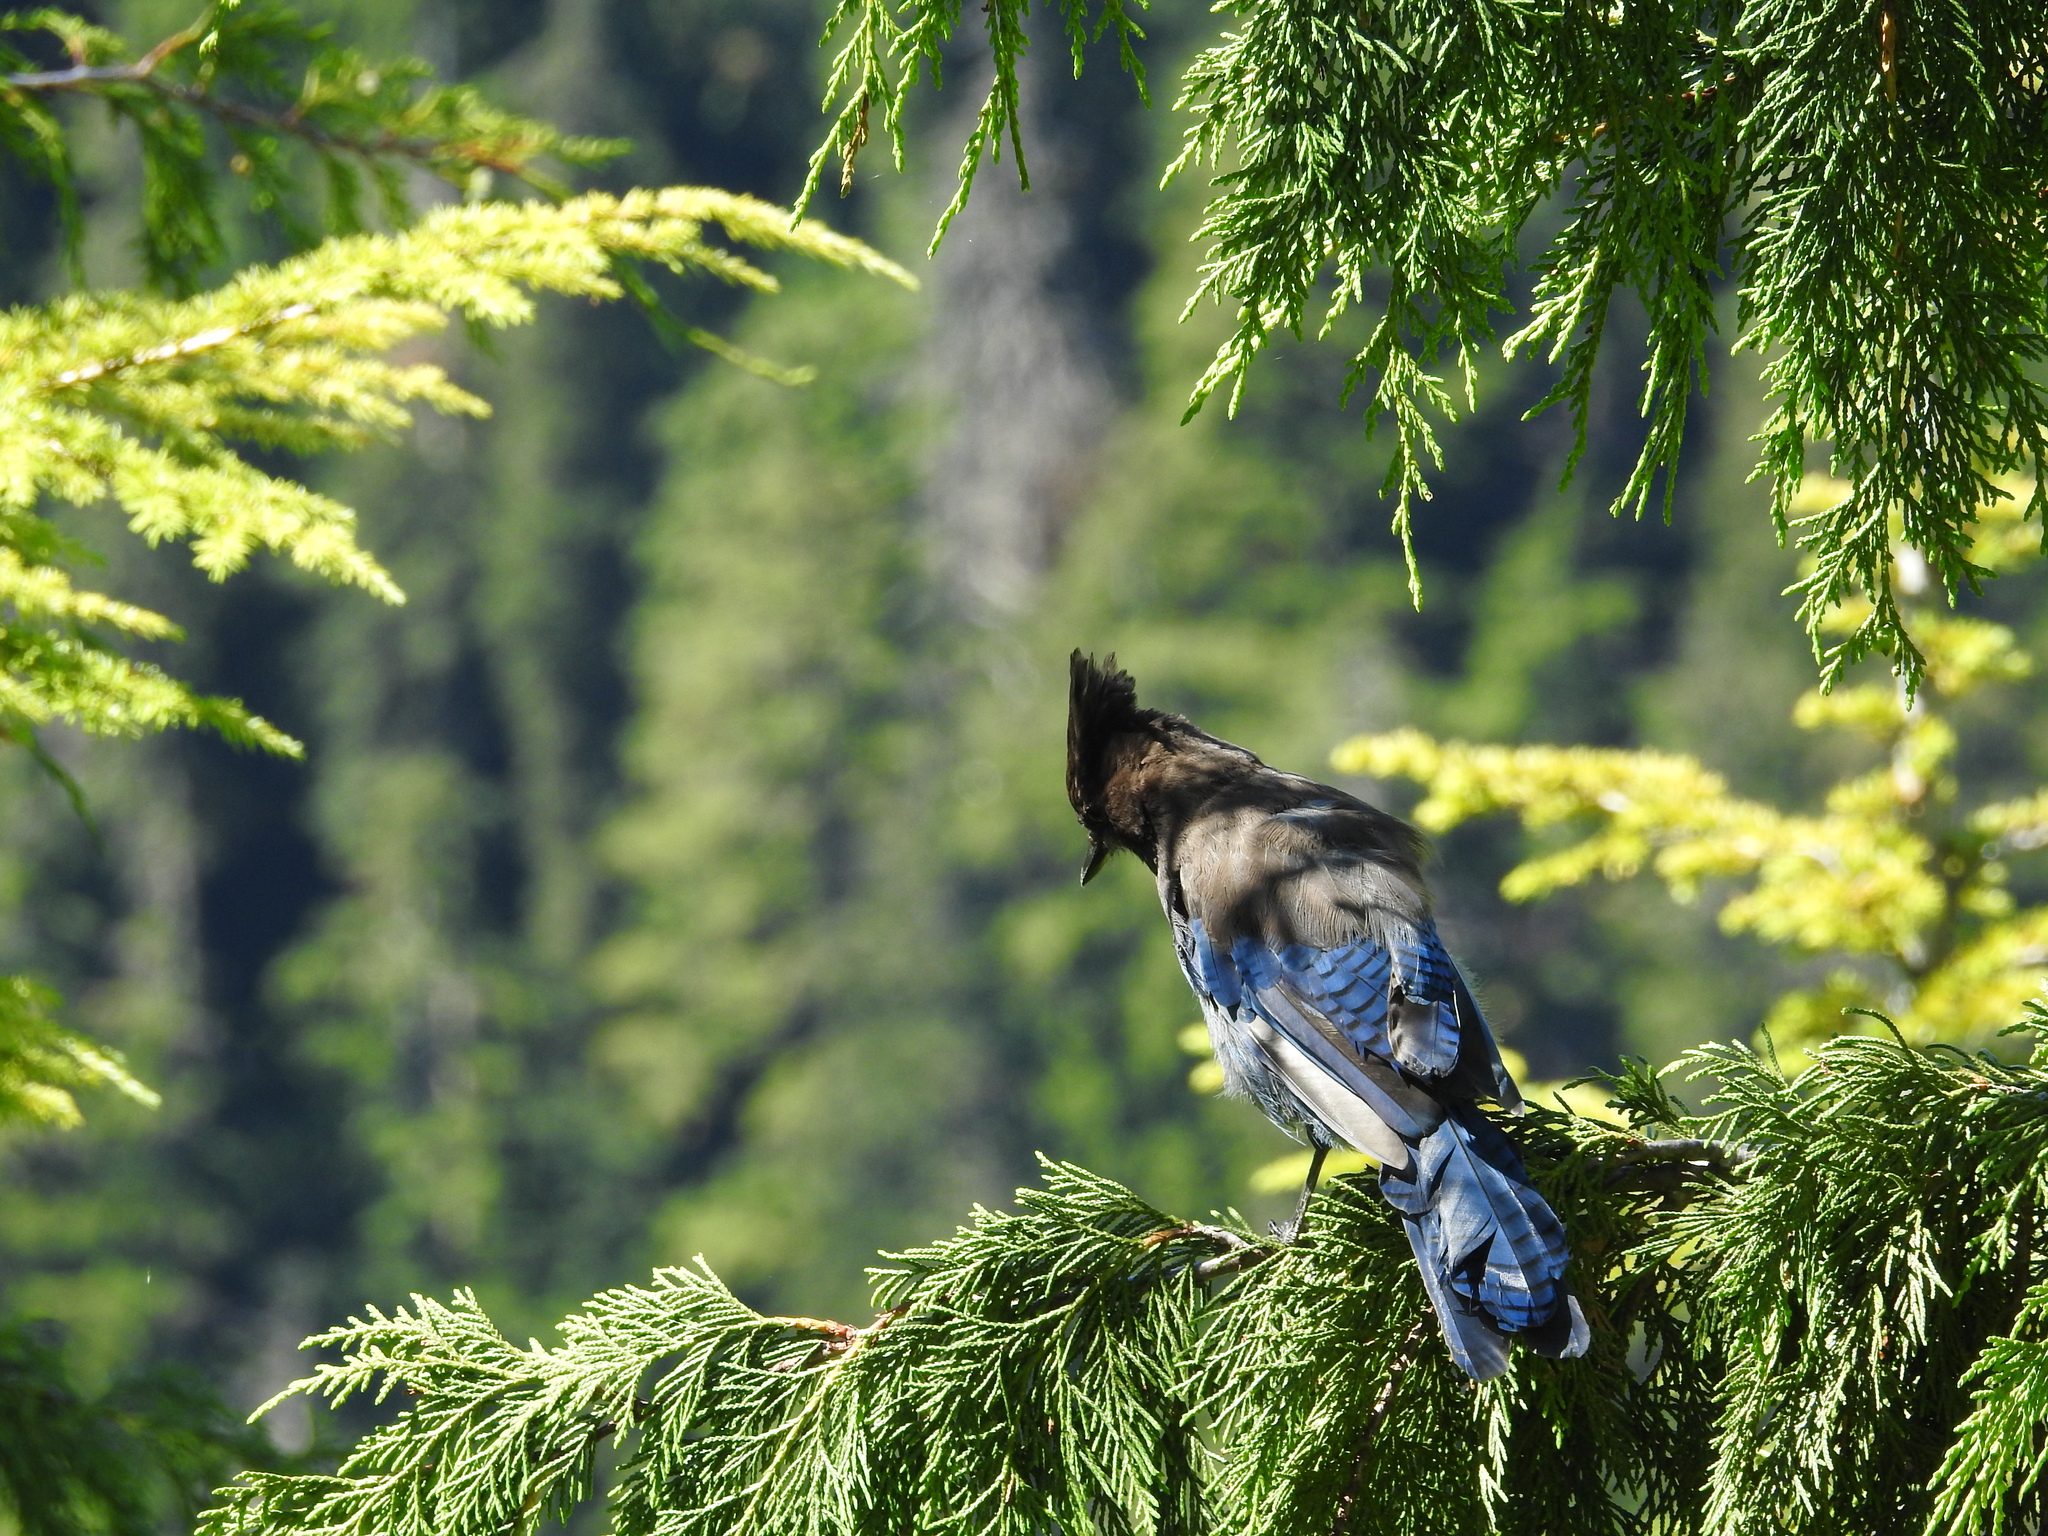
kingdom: Animalia
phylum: Chordata
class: Aves
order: Passeriformes
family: Corvidae
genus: Cyanocitta
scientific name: Cyanocitta stelleri
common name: Steller's jay
